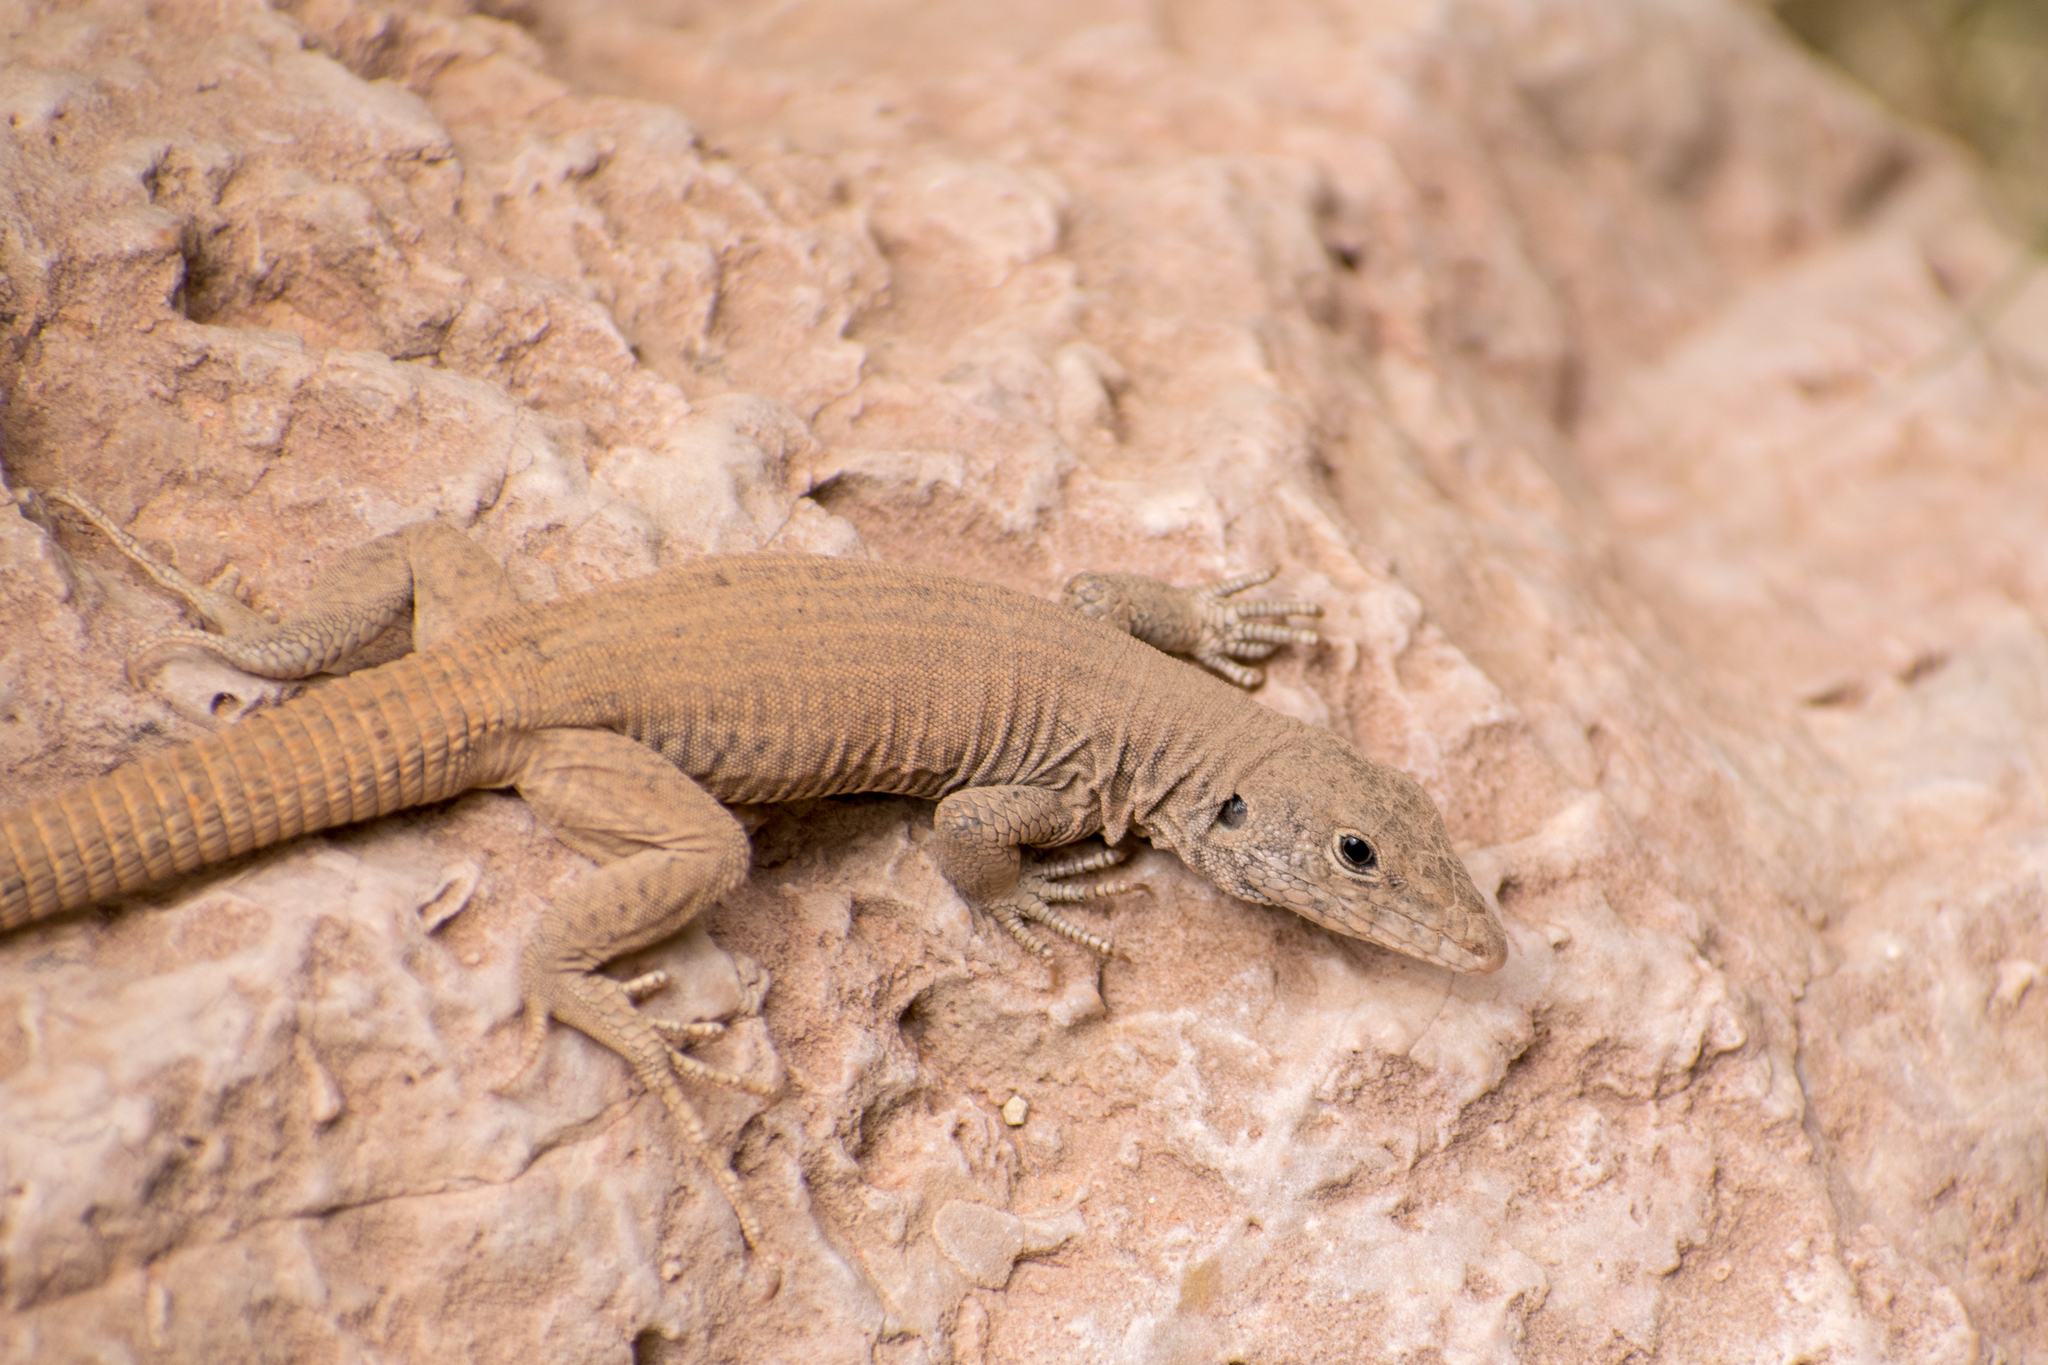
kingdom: Animalia
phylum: Chordata
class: Squamata
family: Teiidae
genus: Aspidoscelis
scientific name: Aspidoscelis tigris
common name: Tiger whiptail
